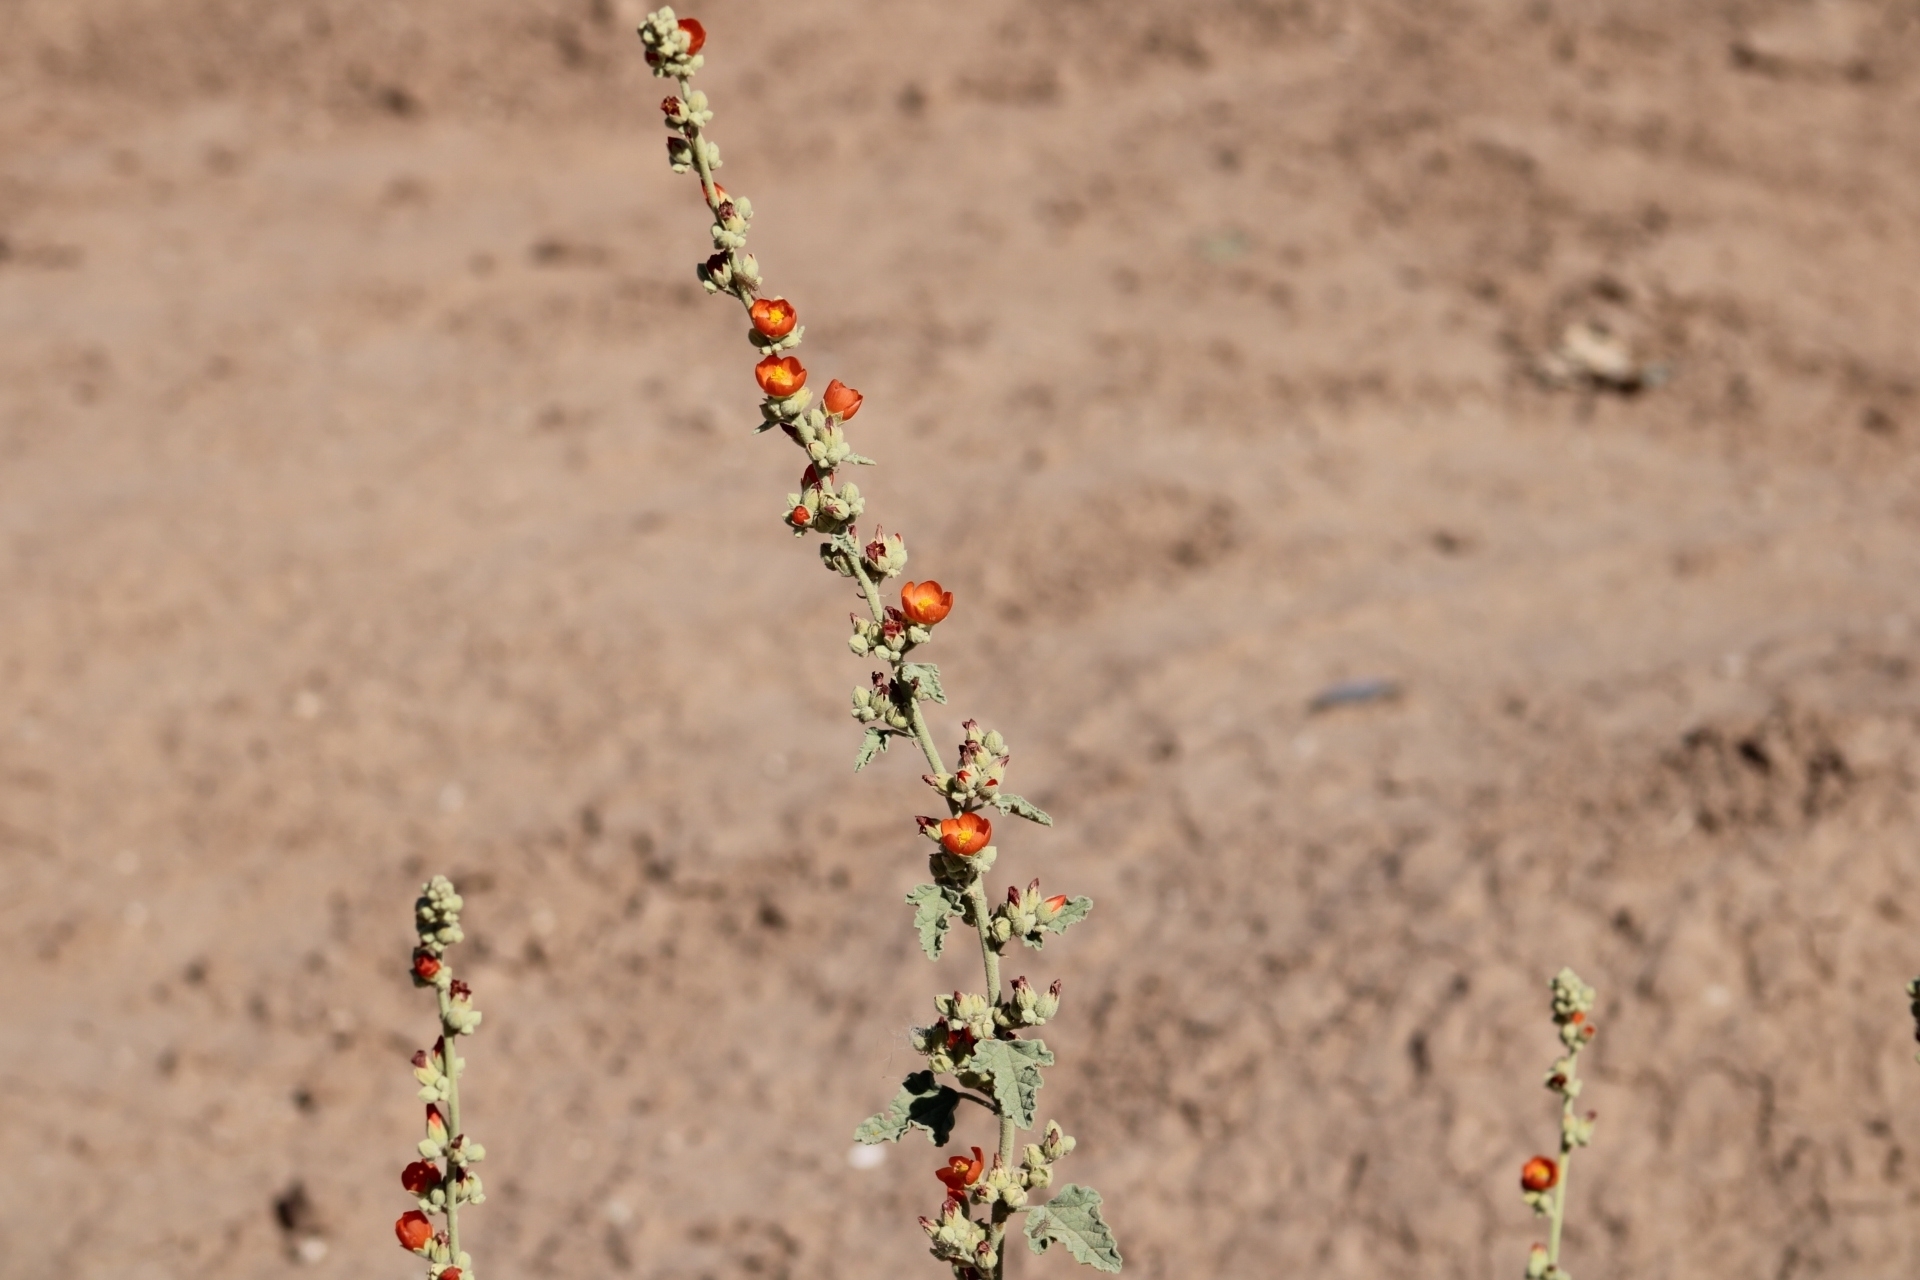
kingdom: Plantae
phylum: Tracheophyta
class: Magnoliopsida
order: Malvales
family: Malvaceae
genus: Sphaeralcea
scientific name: Sphaeralcea ambigua
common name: Apricot globe-mallow
